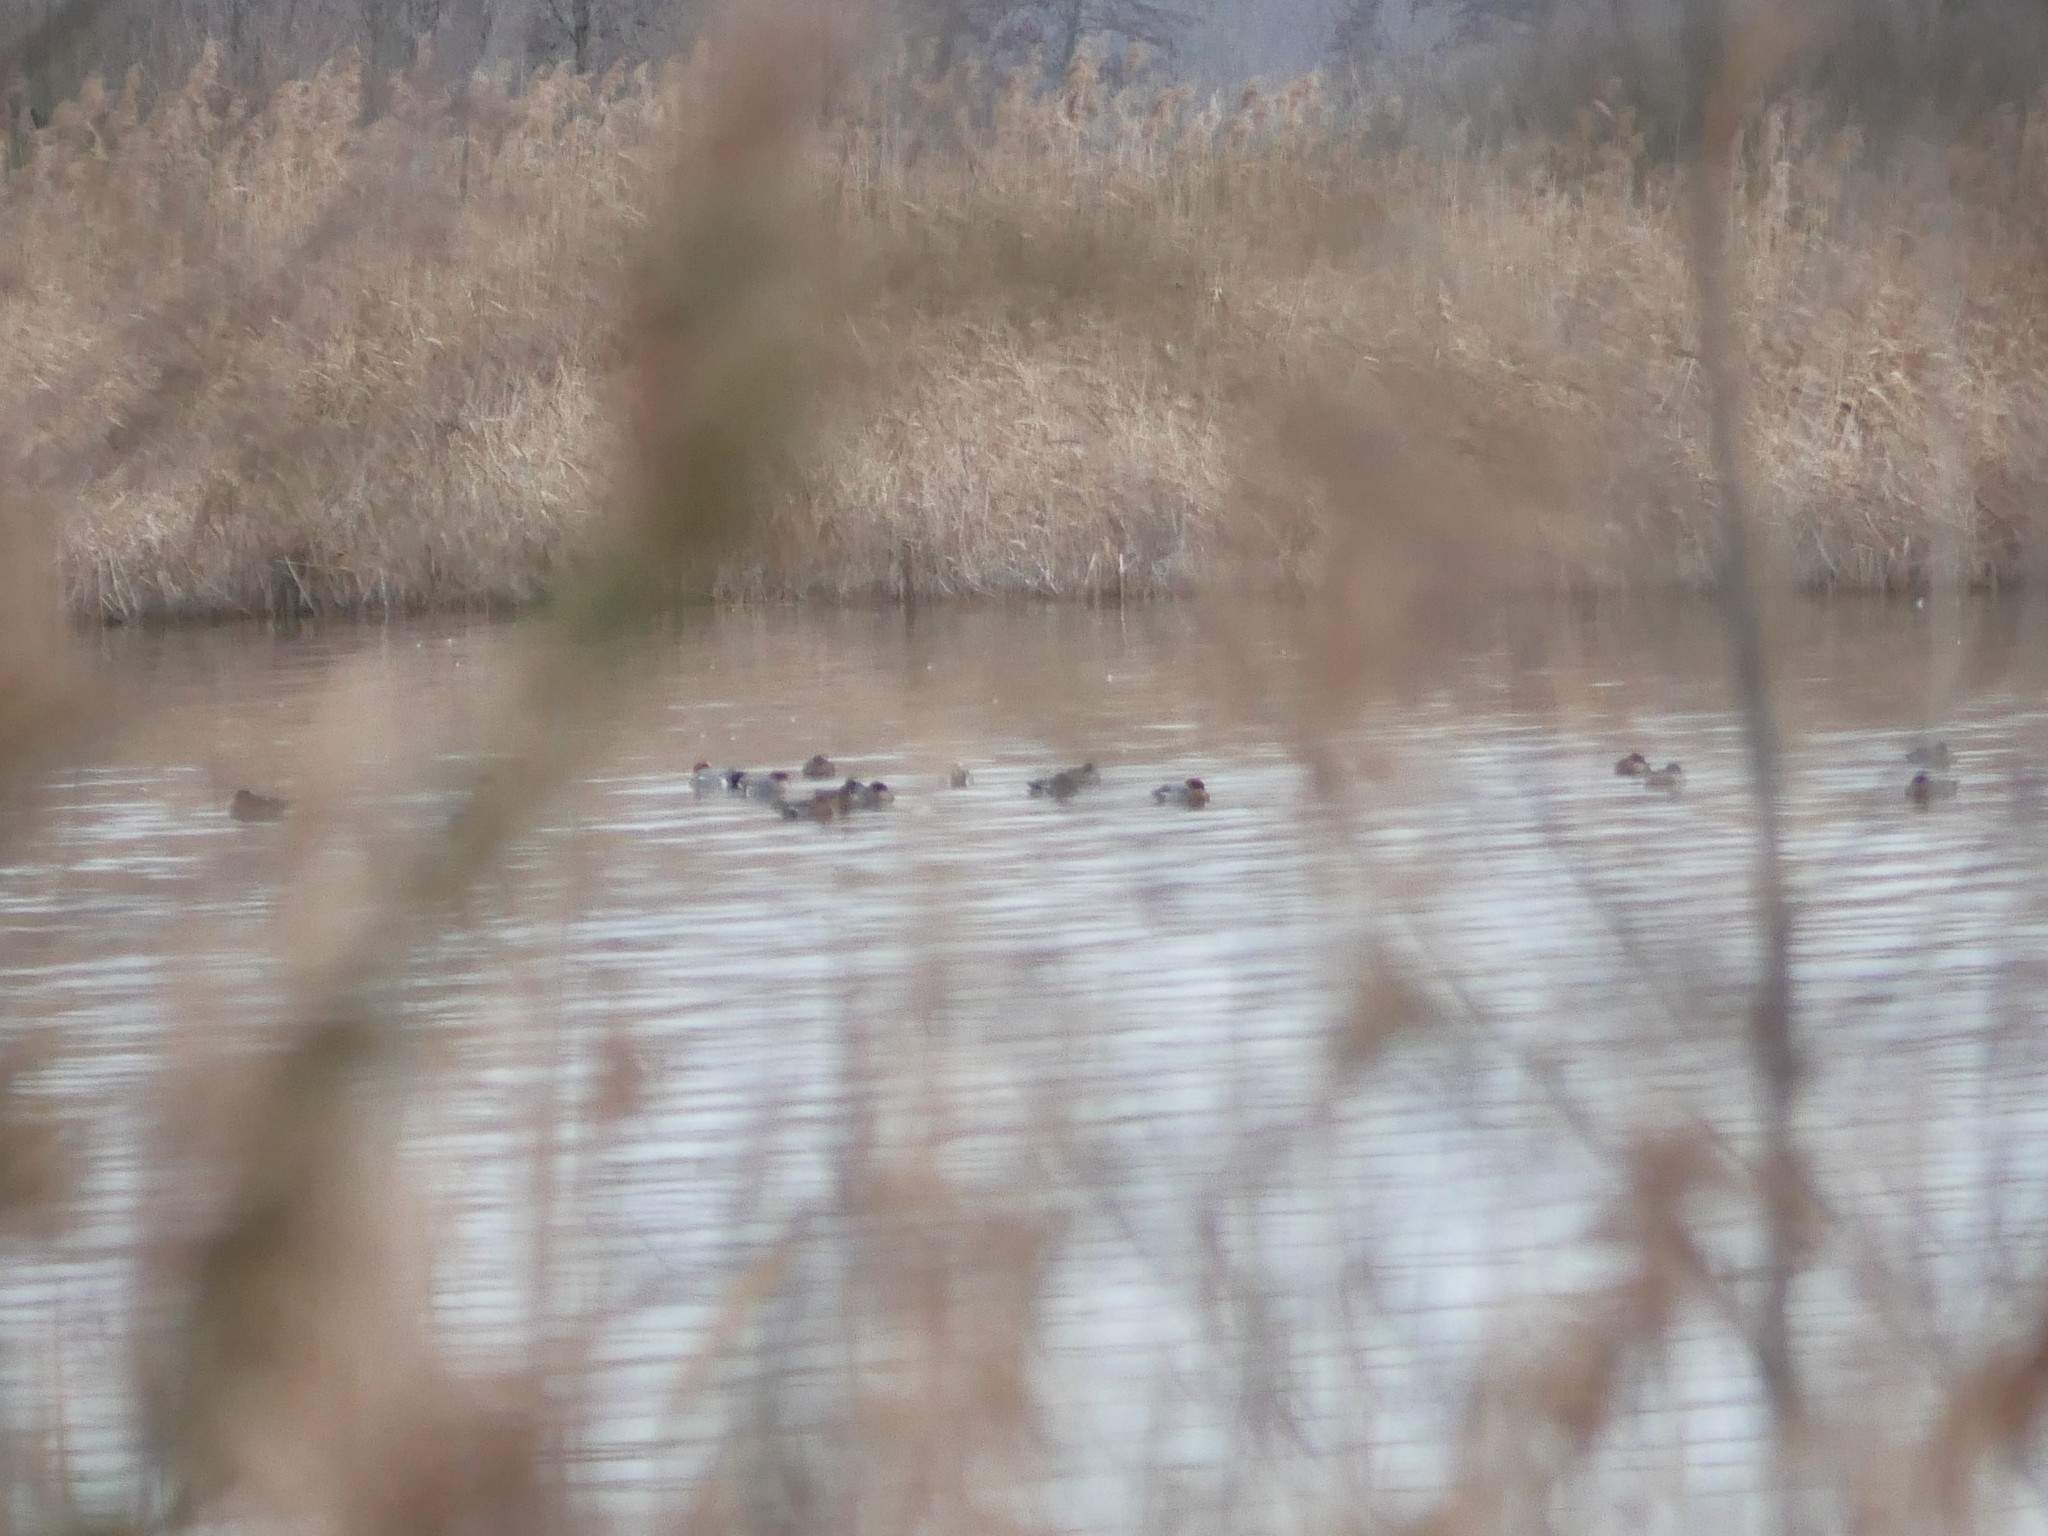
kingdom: Animalia
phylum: Chordata
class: Aves
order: Anseriformes
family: Anatidae
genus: Mareca
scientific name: Mareca penelope
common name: Eurasian wigeon
